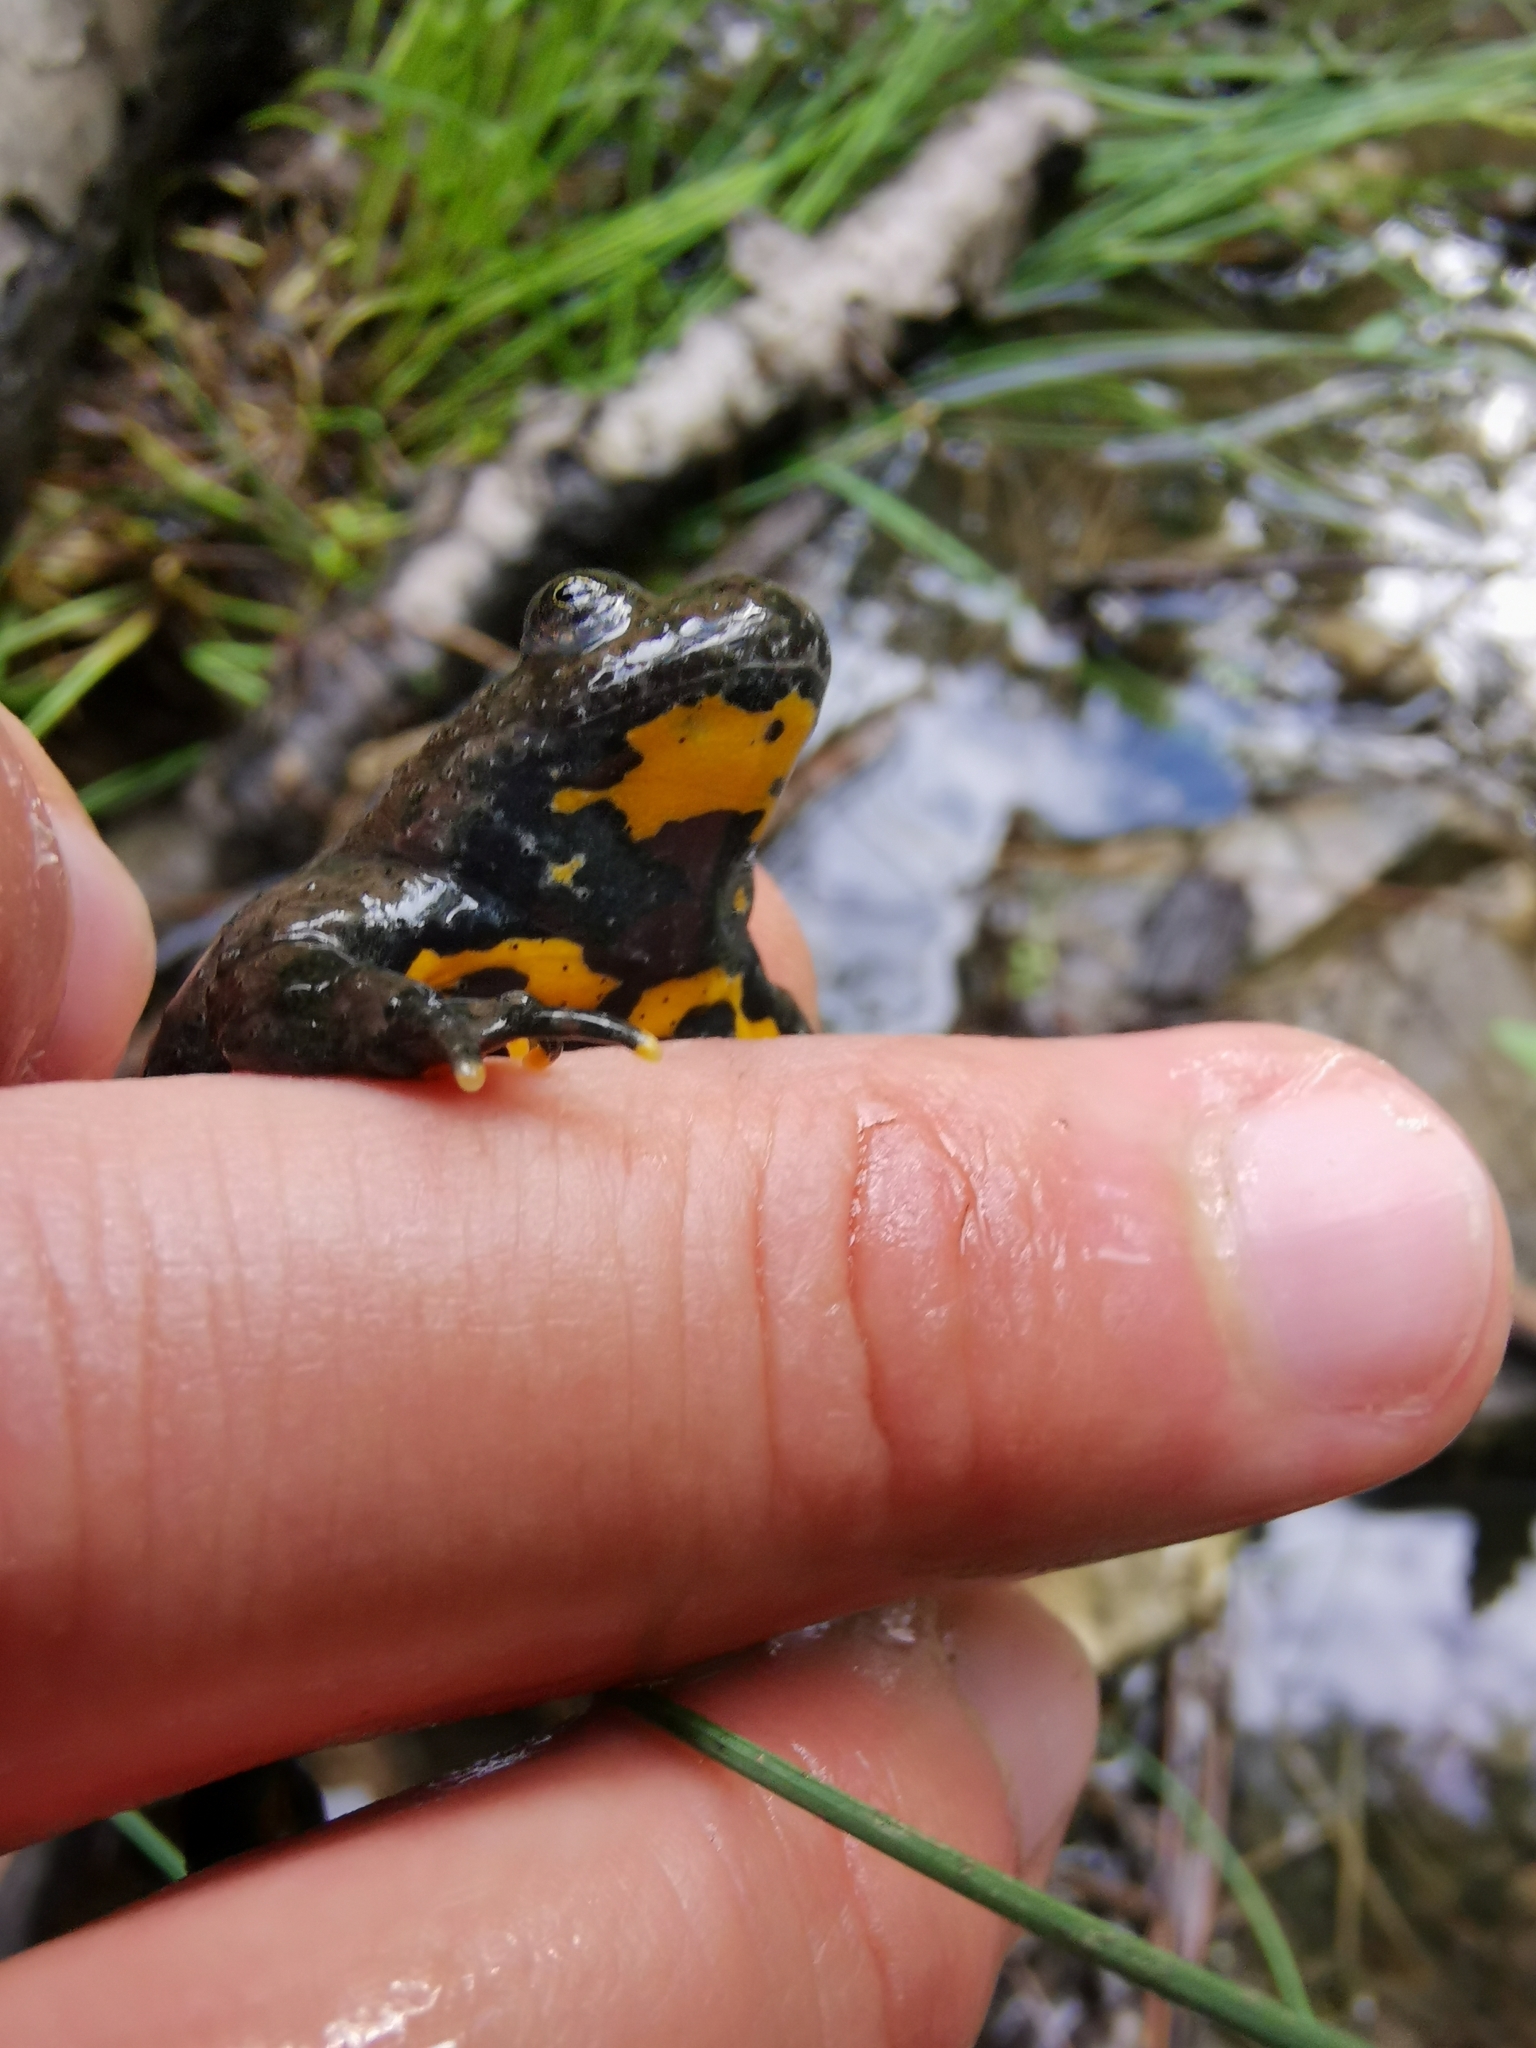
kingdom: Animalia
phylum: Chordata
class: Amphibia
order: Anura
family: Bombinatoridae
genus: Bombina
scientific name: Bombina variegata
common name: Yellow-bellied toad
